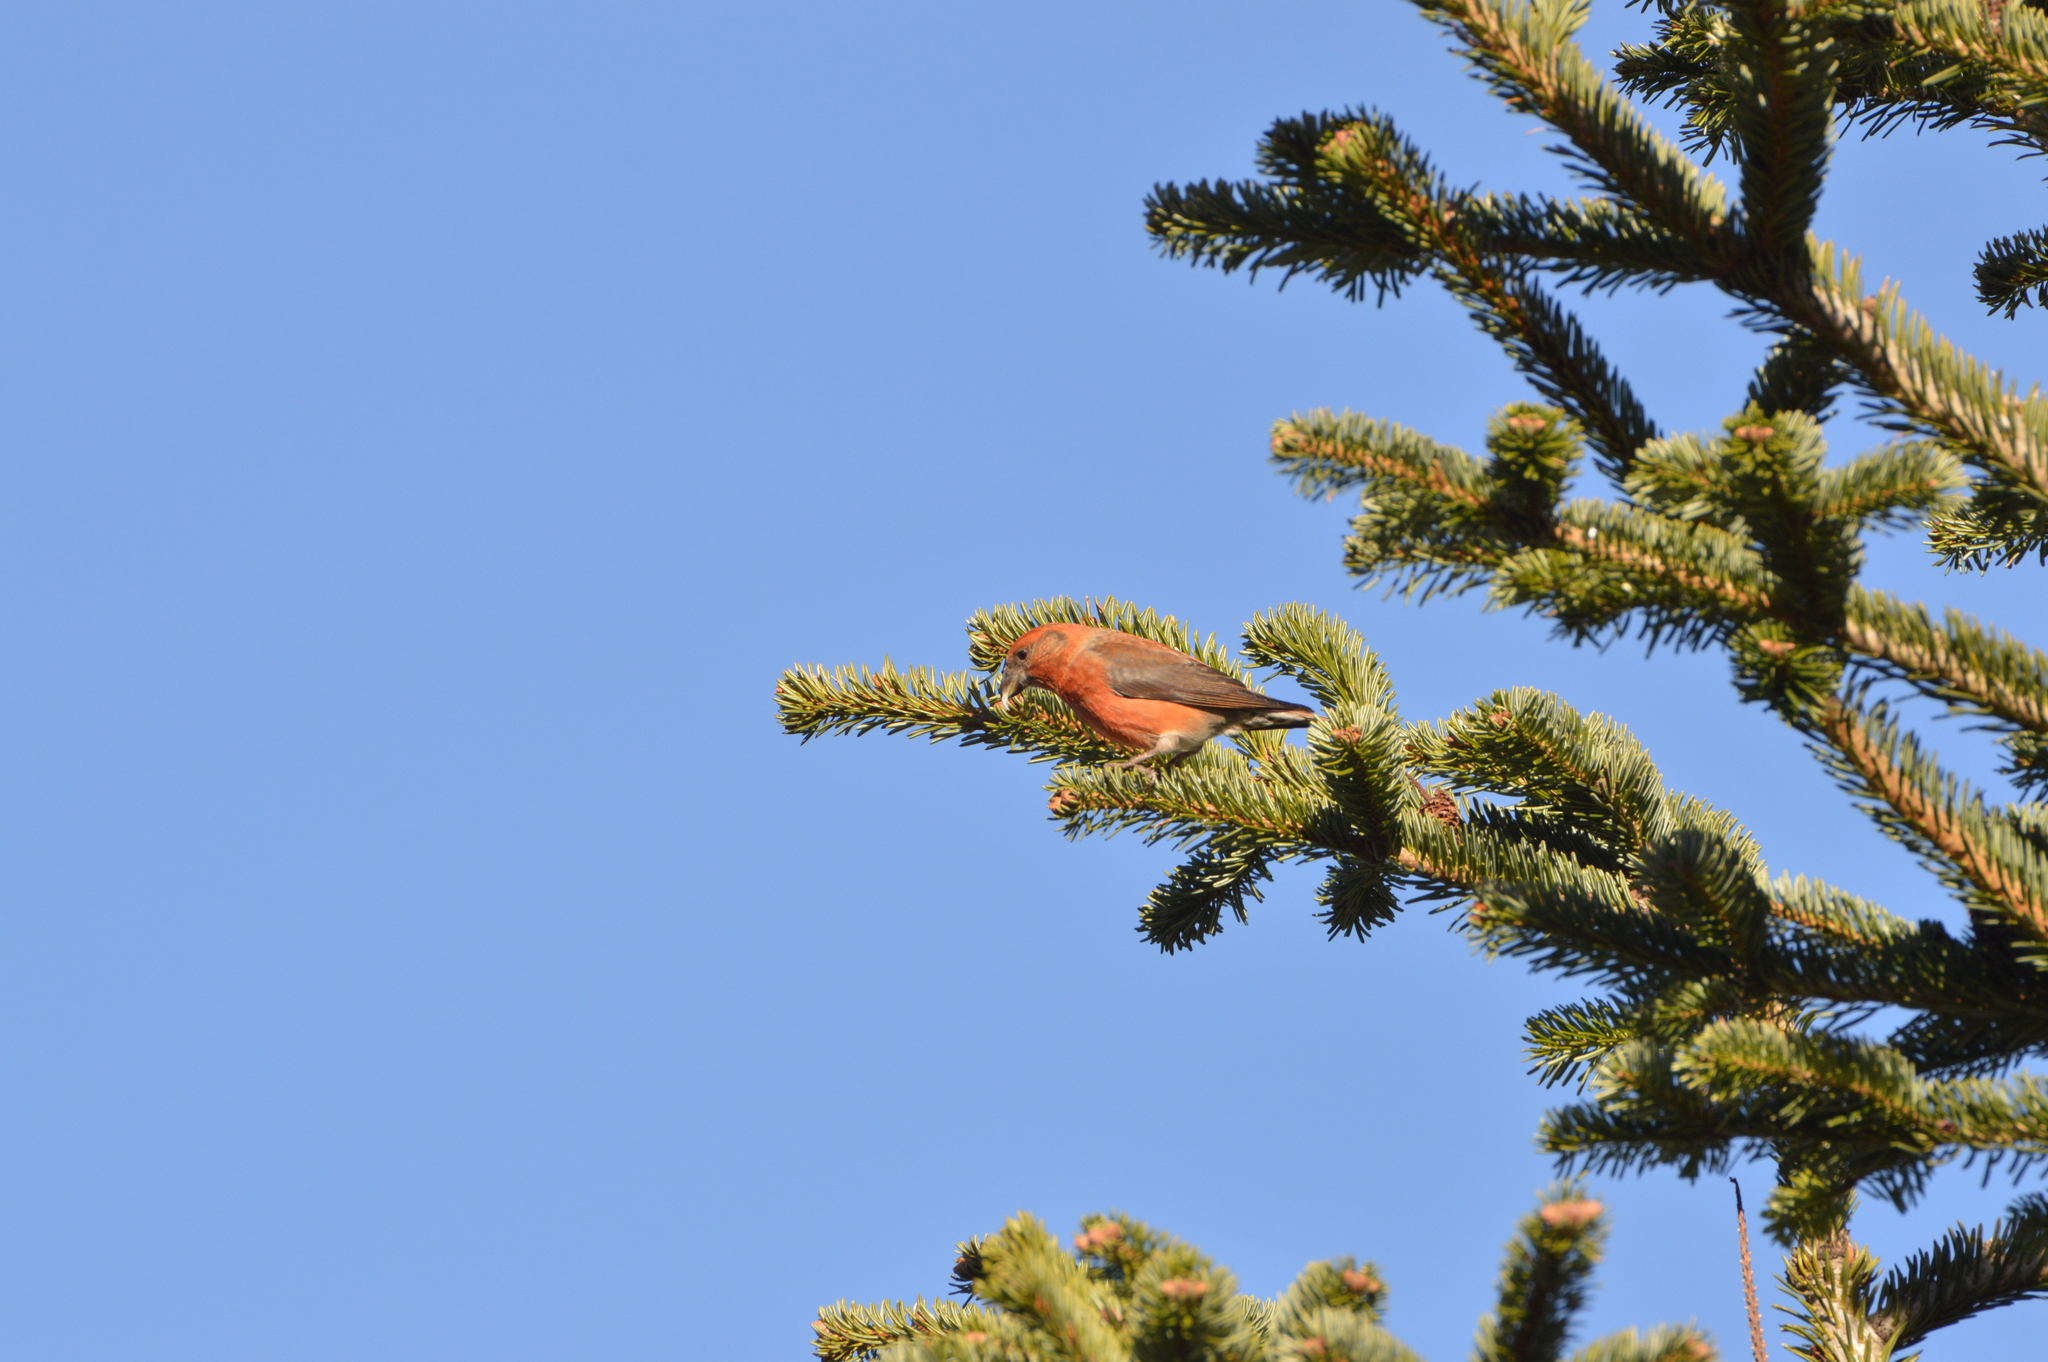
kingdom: Animalia
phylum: Chordata
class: Aves
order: Passeriformes
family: Fringillidae
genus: Loxia
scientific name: Loxia curvirostra
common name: Red crossbill
